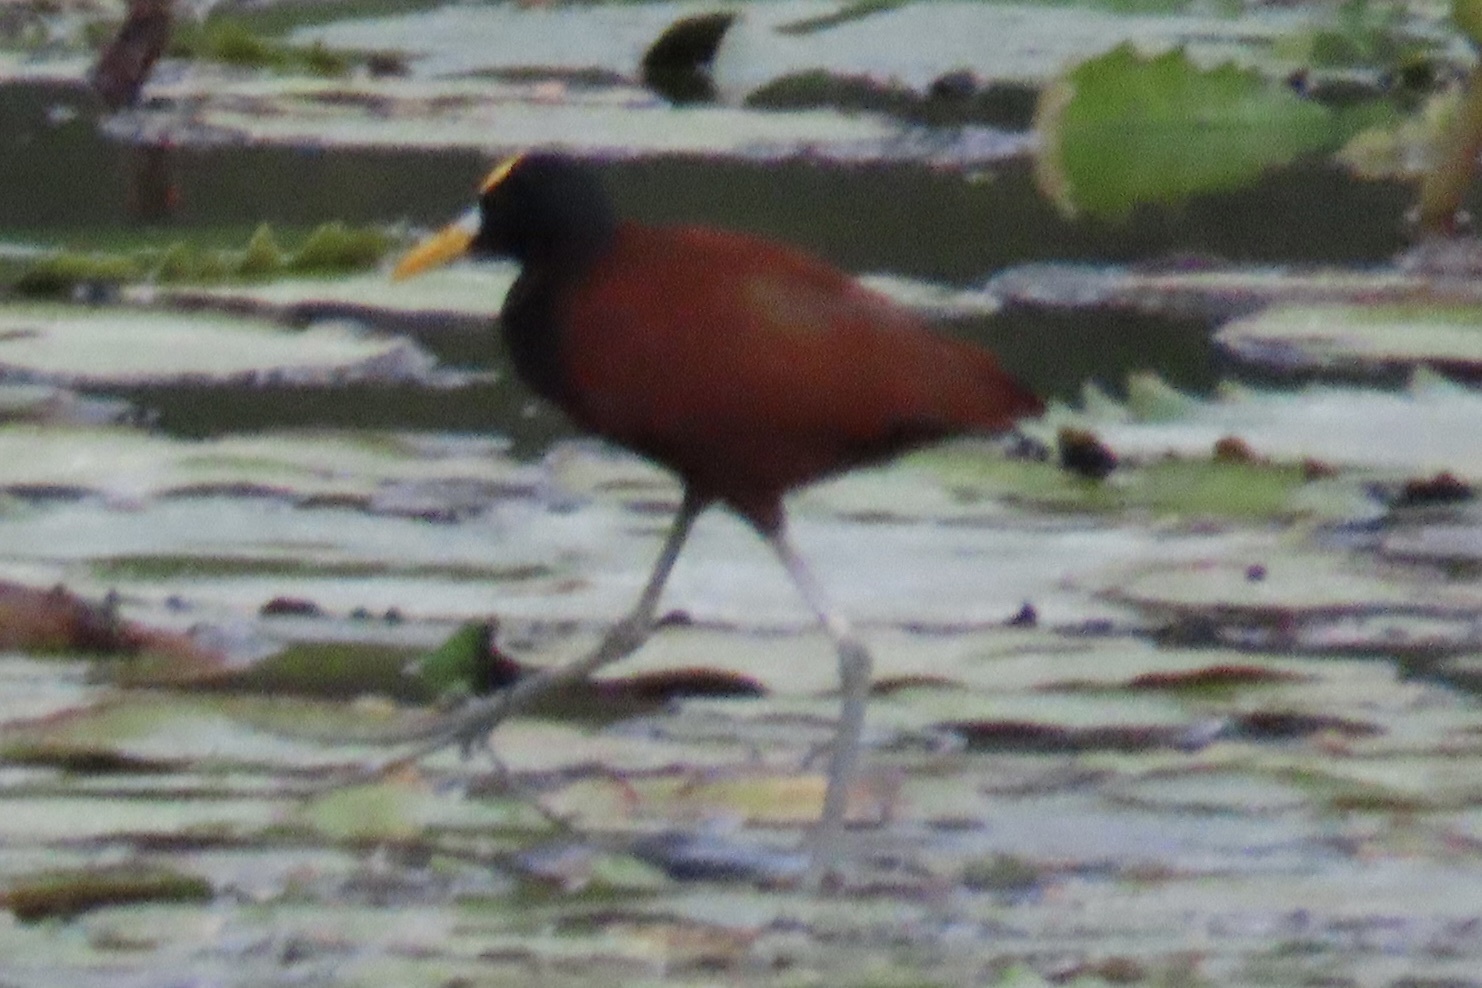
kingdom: Animalia
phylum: Chordata
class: Aves
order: Charadriiformes
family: Jacanidae
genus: Jacana
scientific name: Jacana spinosa
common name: Northern jacana
